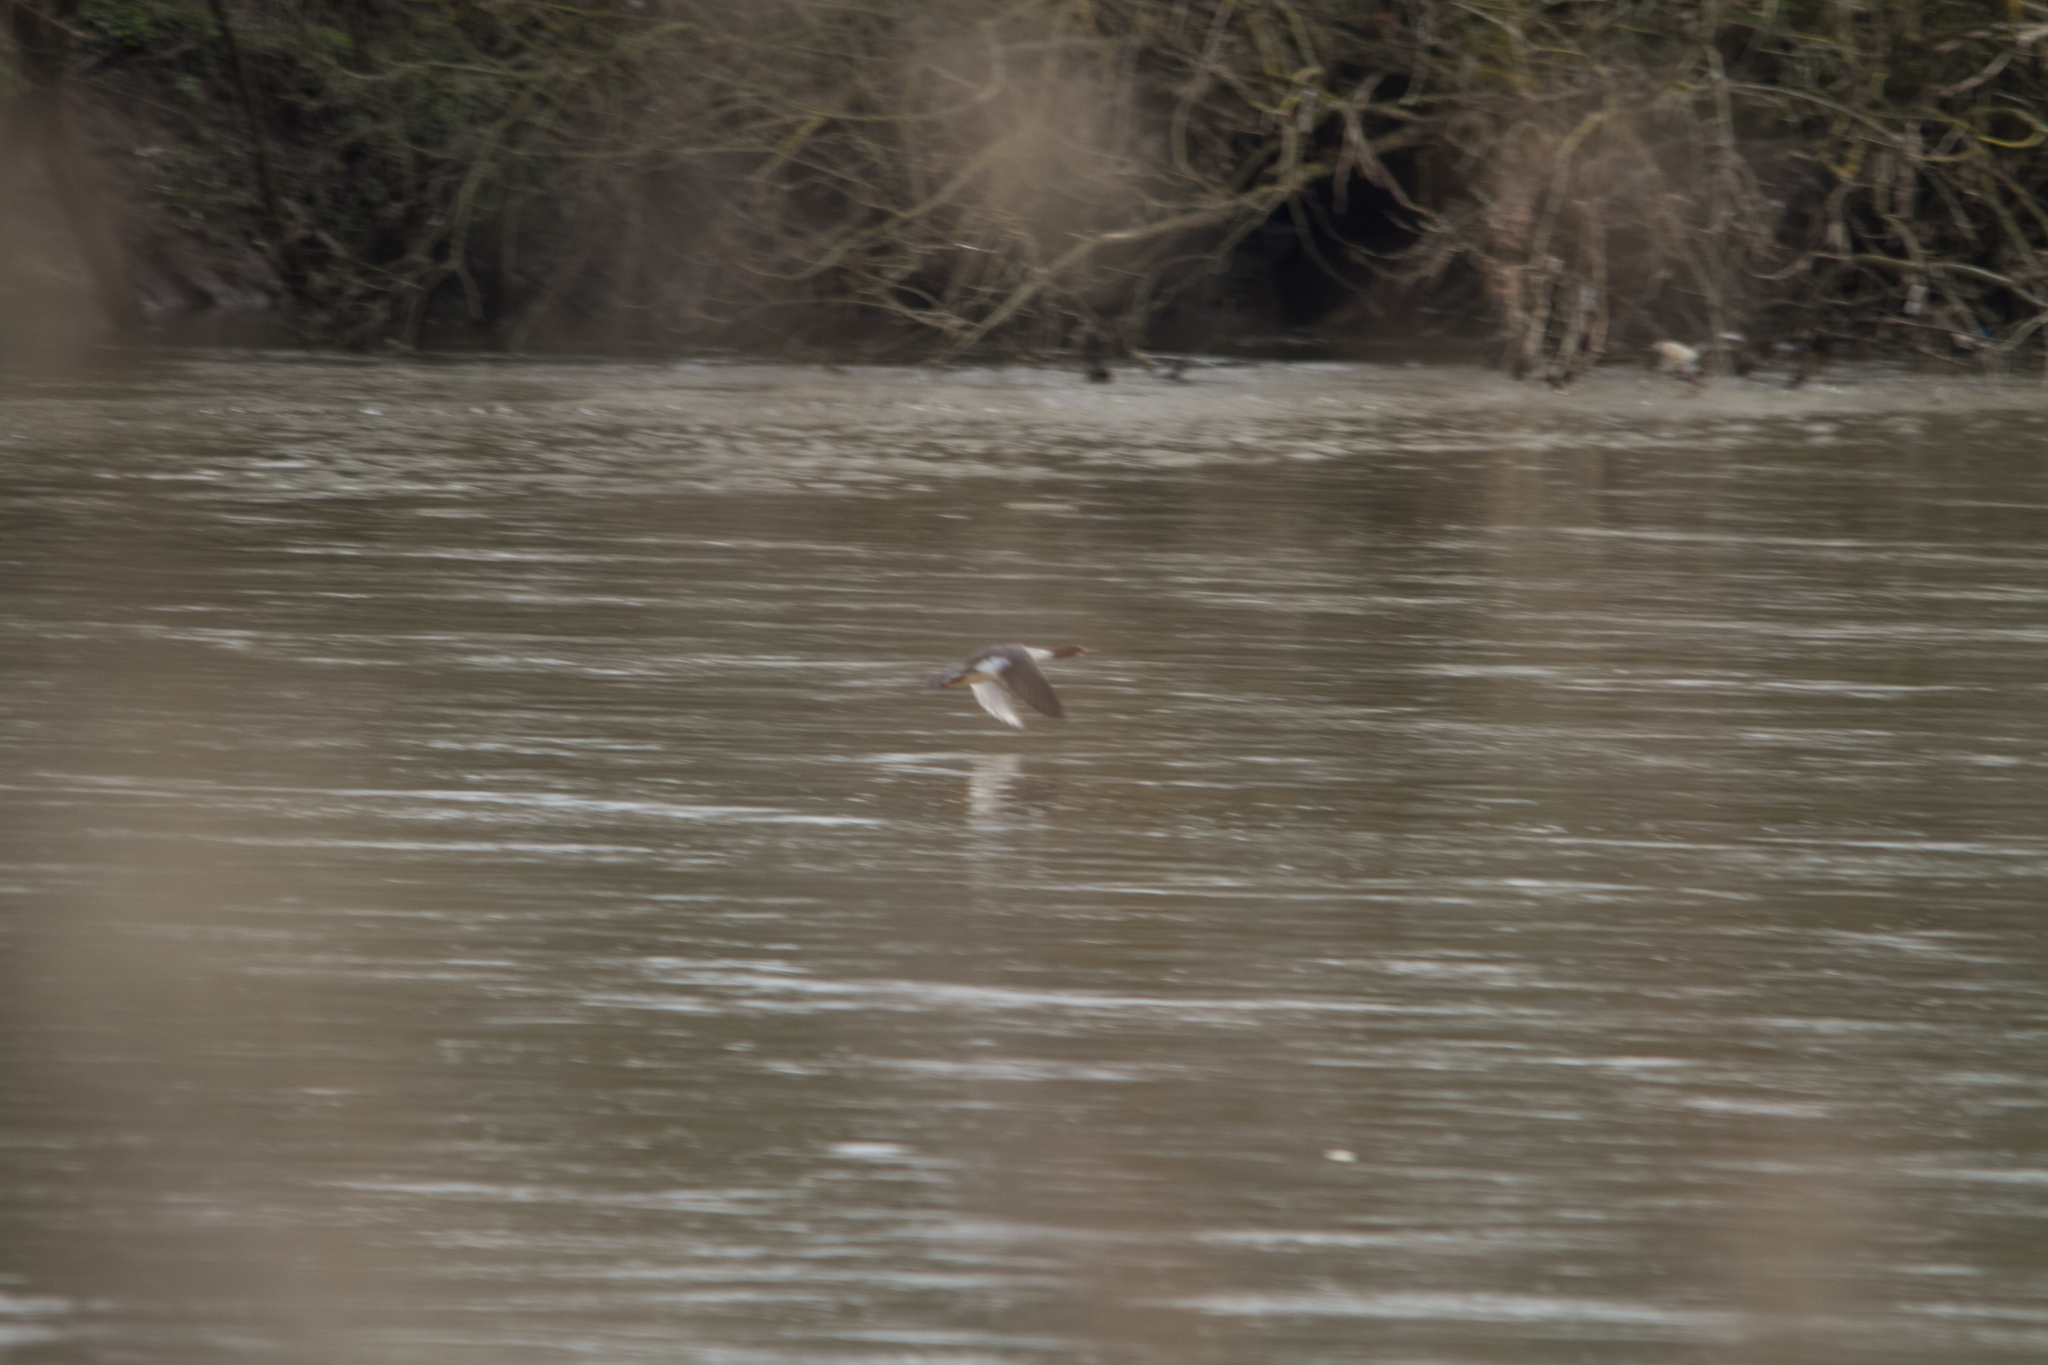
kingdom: Animalia
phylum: Chordata
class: Aves
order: Anseriformes
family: Anatidae
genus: Mergus
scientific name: Mergus merganser
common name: Common merganser
